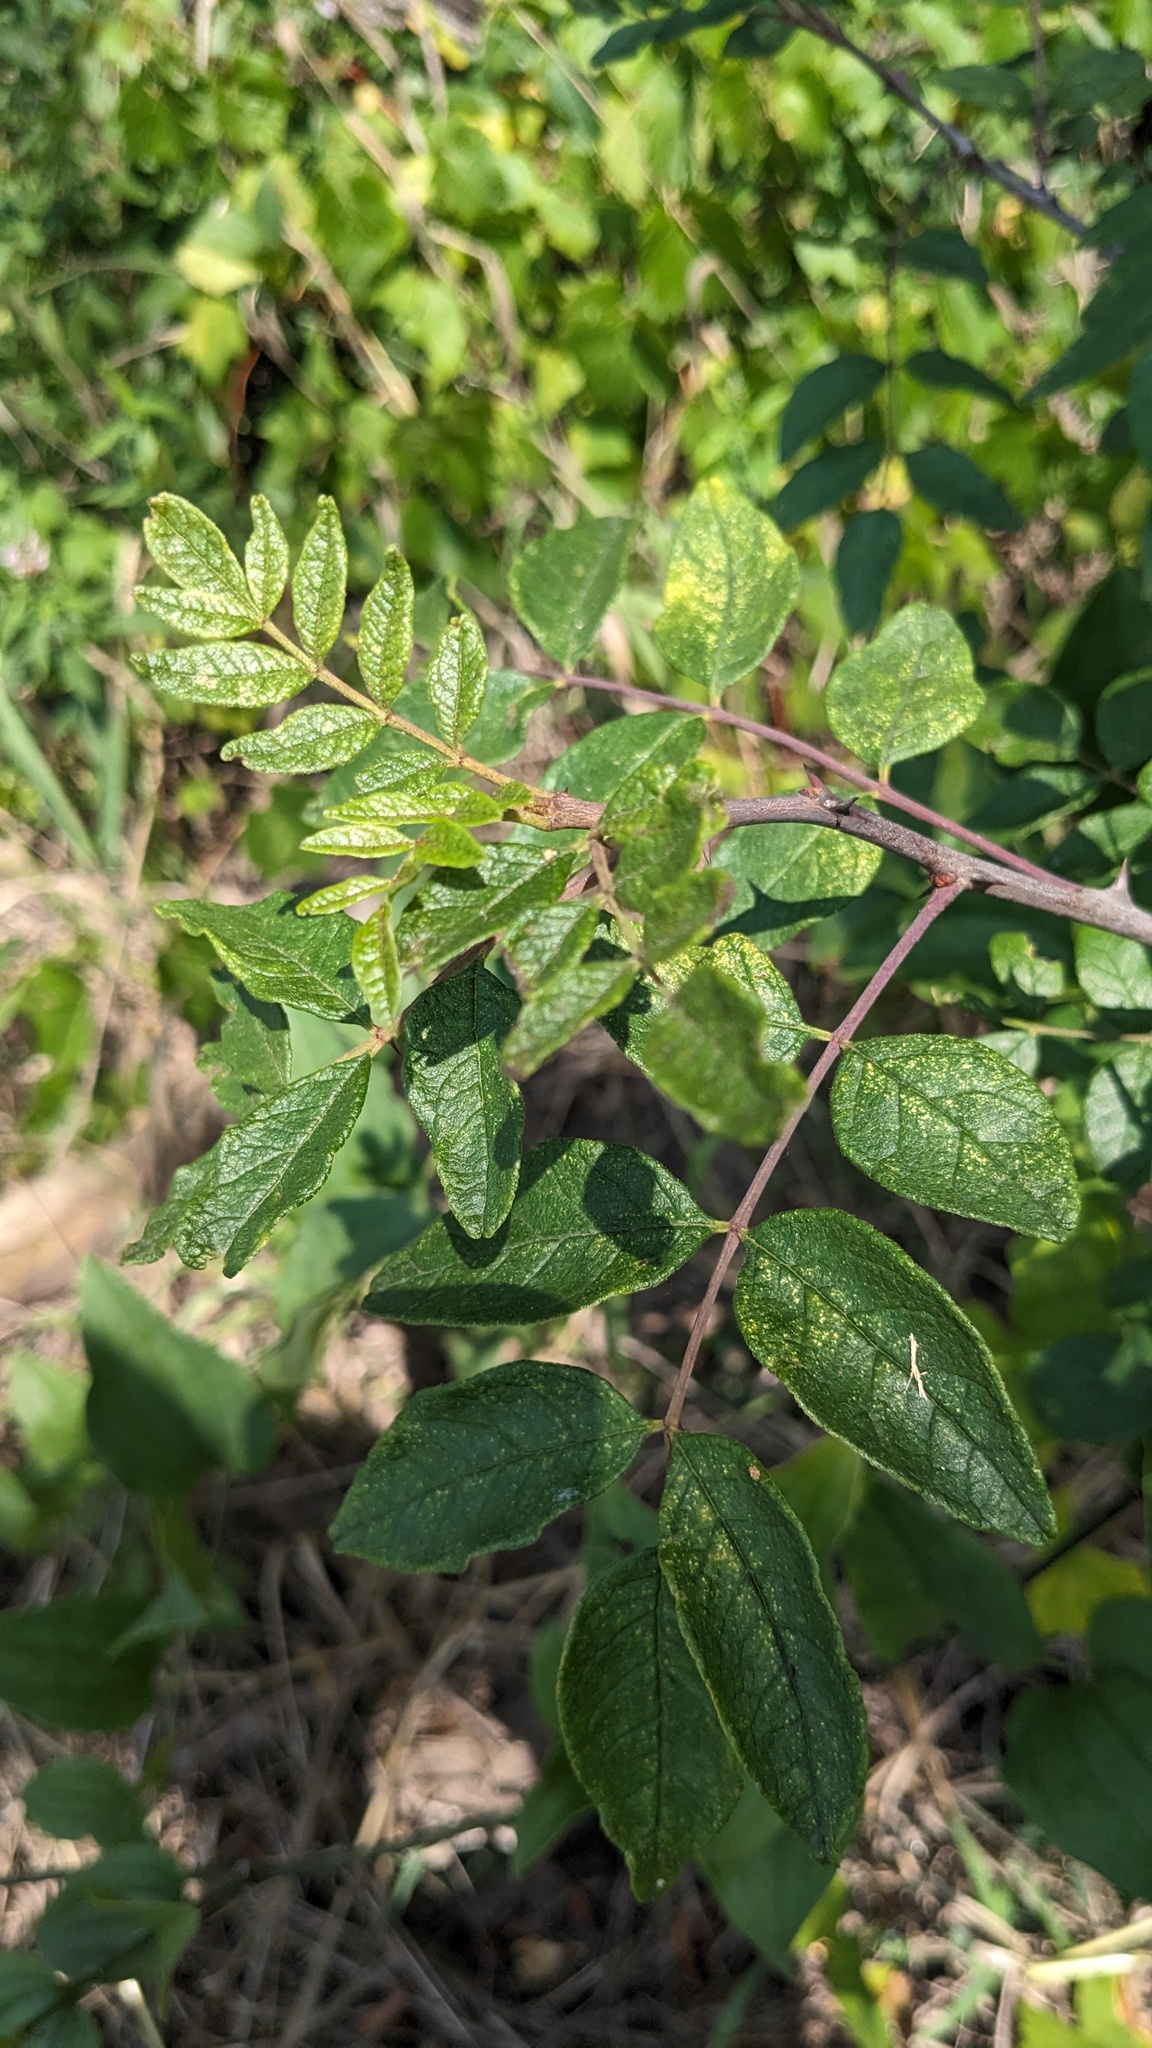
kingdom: Plantae
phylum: Tracheophyta
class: Magnoliopsida
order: Sapindales
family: Rutaceae
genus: Zanthoxylum
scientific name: Zanthoxylum americanum
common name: Northern prickly-ash
